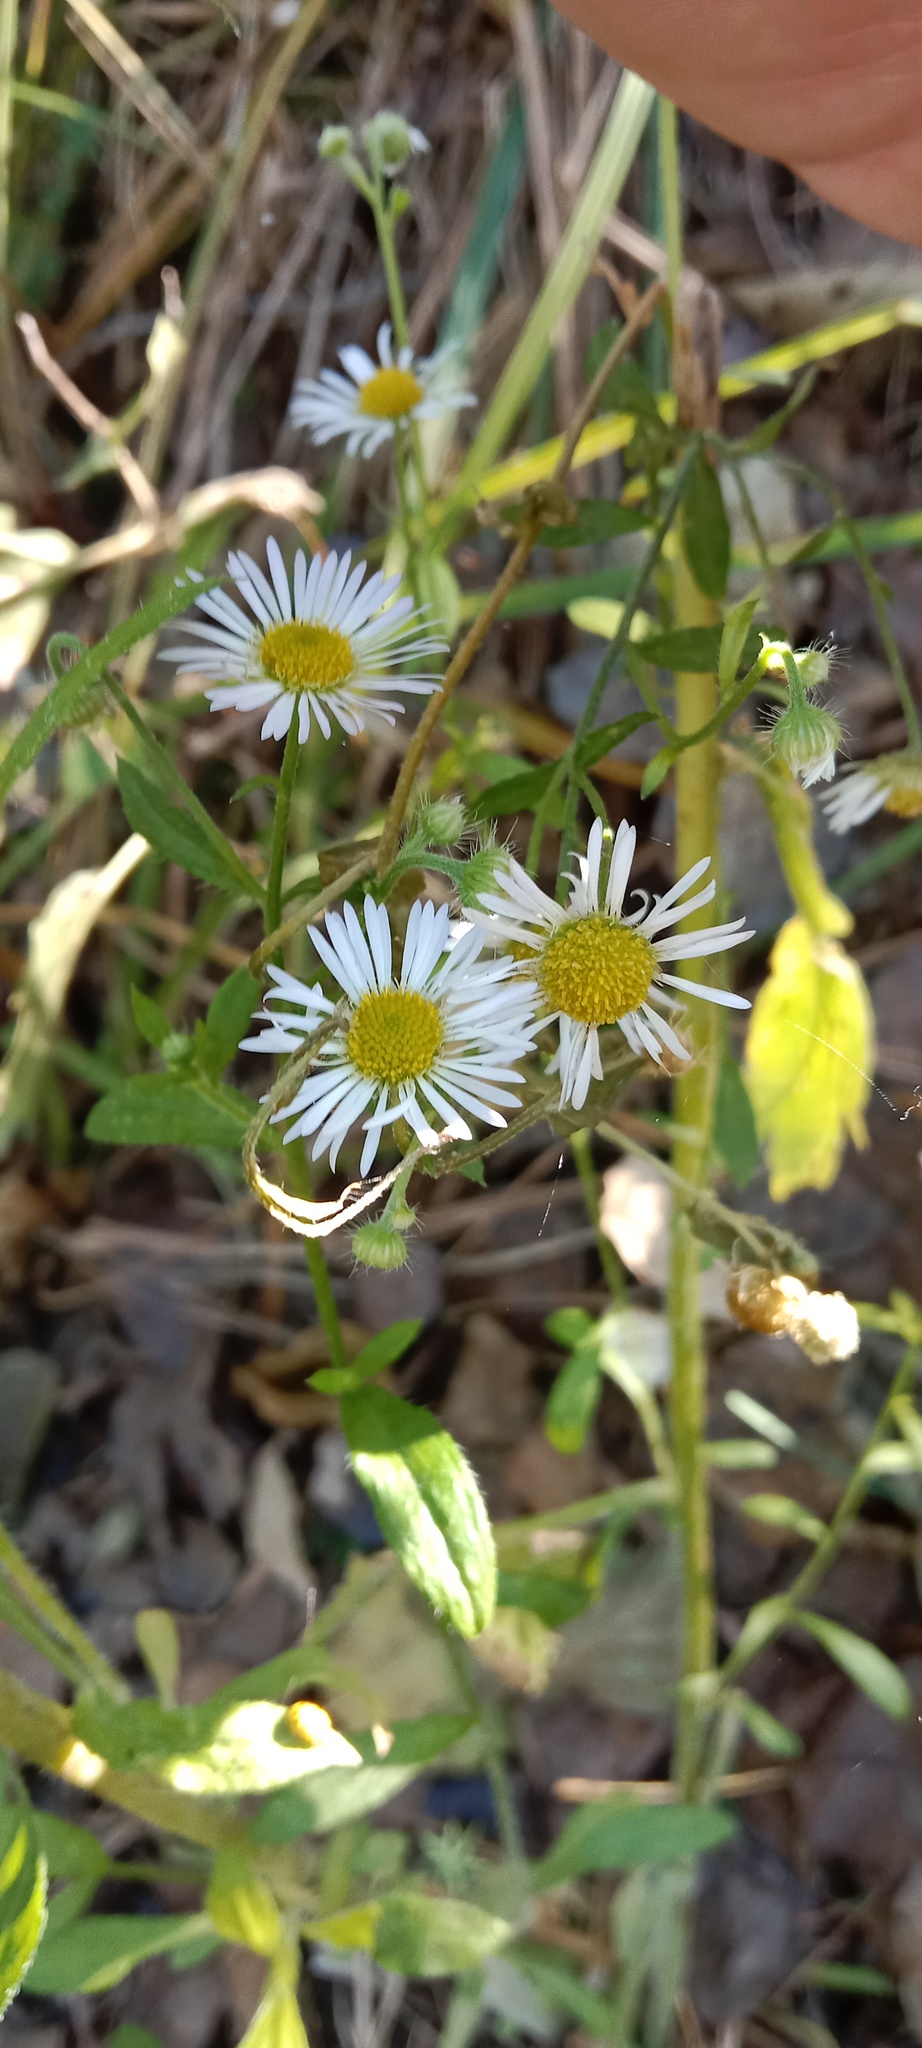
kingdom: Plantae
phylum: Tracheophyta
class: Magnoliopsida
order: Asterales
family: Asteraceae
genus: Erigeron
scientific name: Erigeron annuus
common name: Tall fleabane
